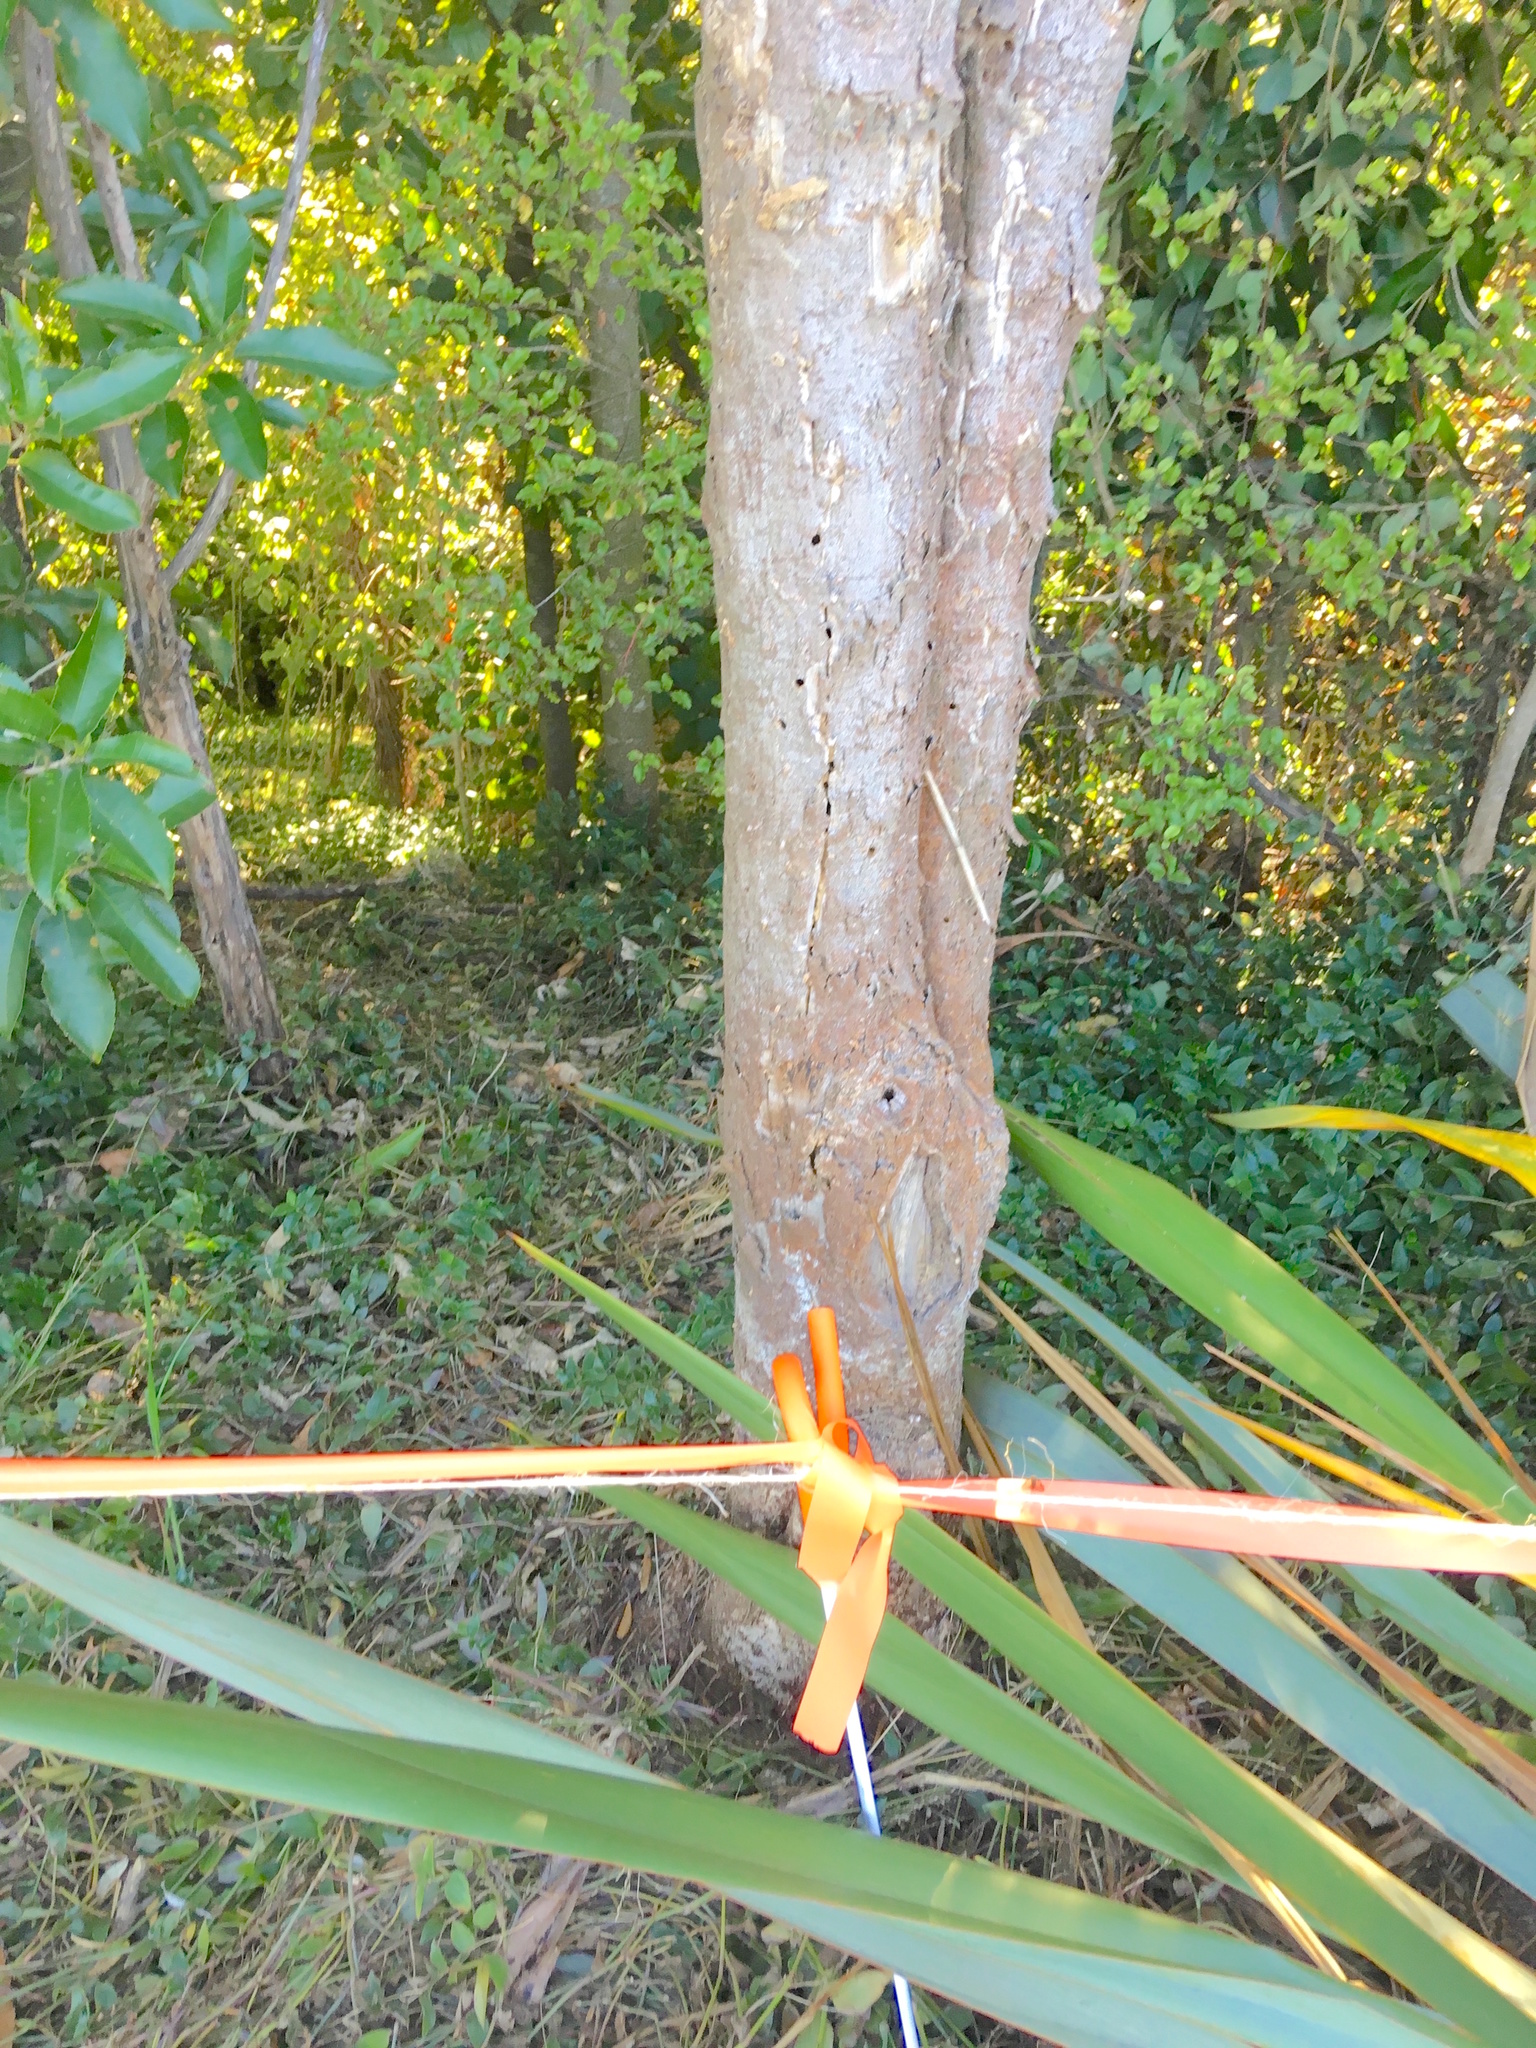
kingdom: Plantae
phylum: Tracheophyta
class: Liliopsida
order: Commelinales
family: Commelinaceae
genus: Tradescantia
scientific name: Tradescantia fluminensis
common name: Wandering-jew
